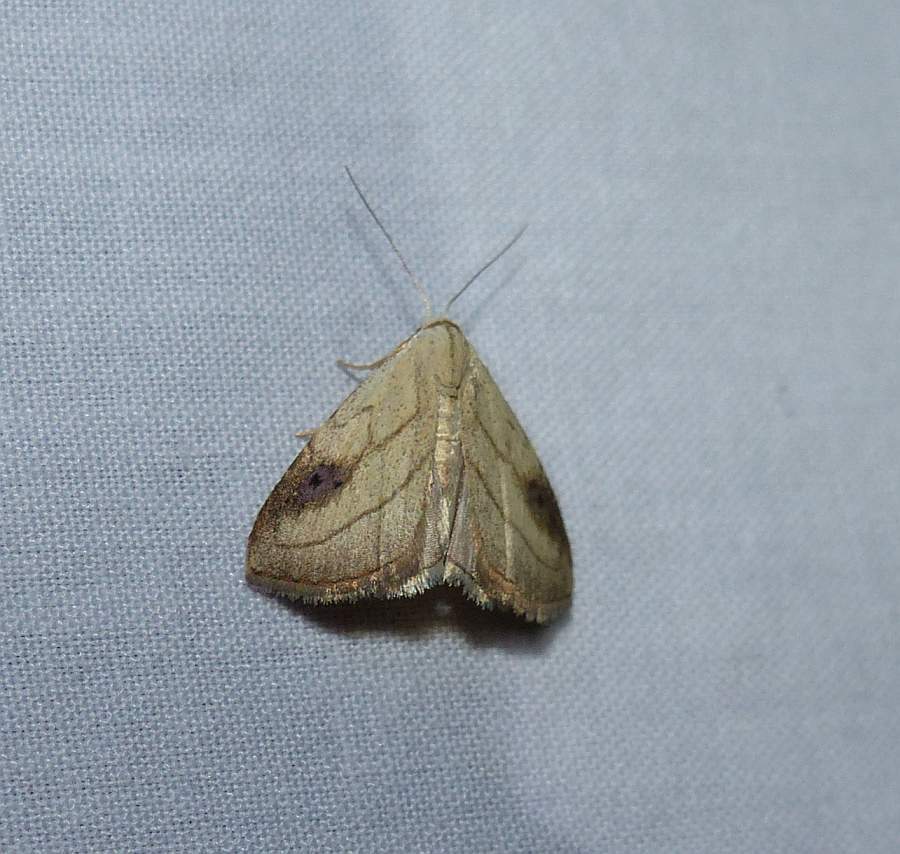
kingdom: Animalia
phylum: Arthropoda
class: Insecta
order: Lepidoptera
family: Erebidae
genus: Rivula
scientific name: Rivula propinqualis
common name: Spotted grass moth
